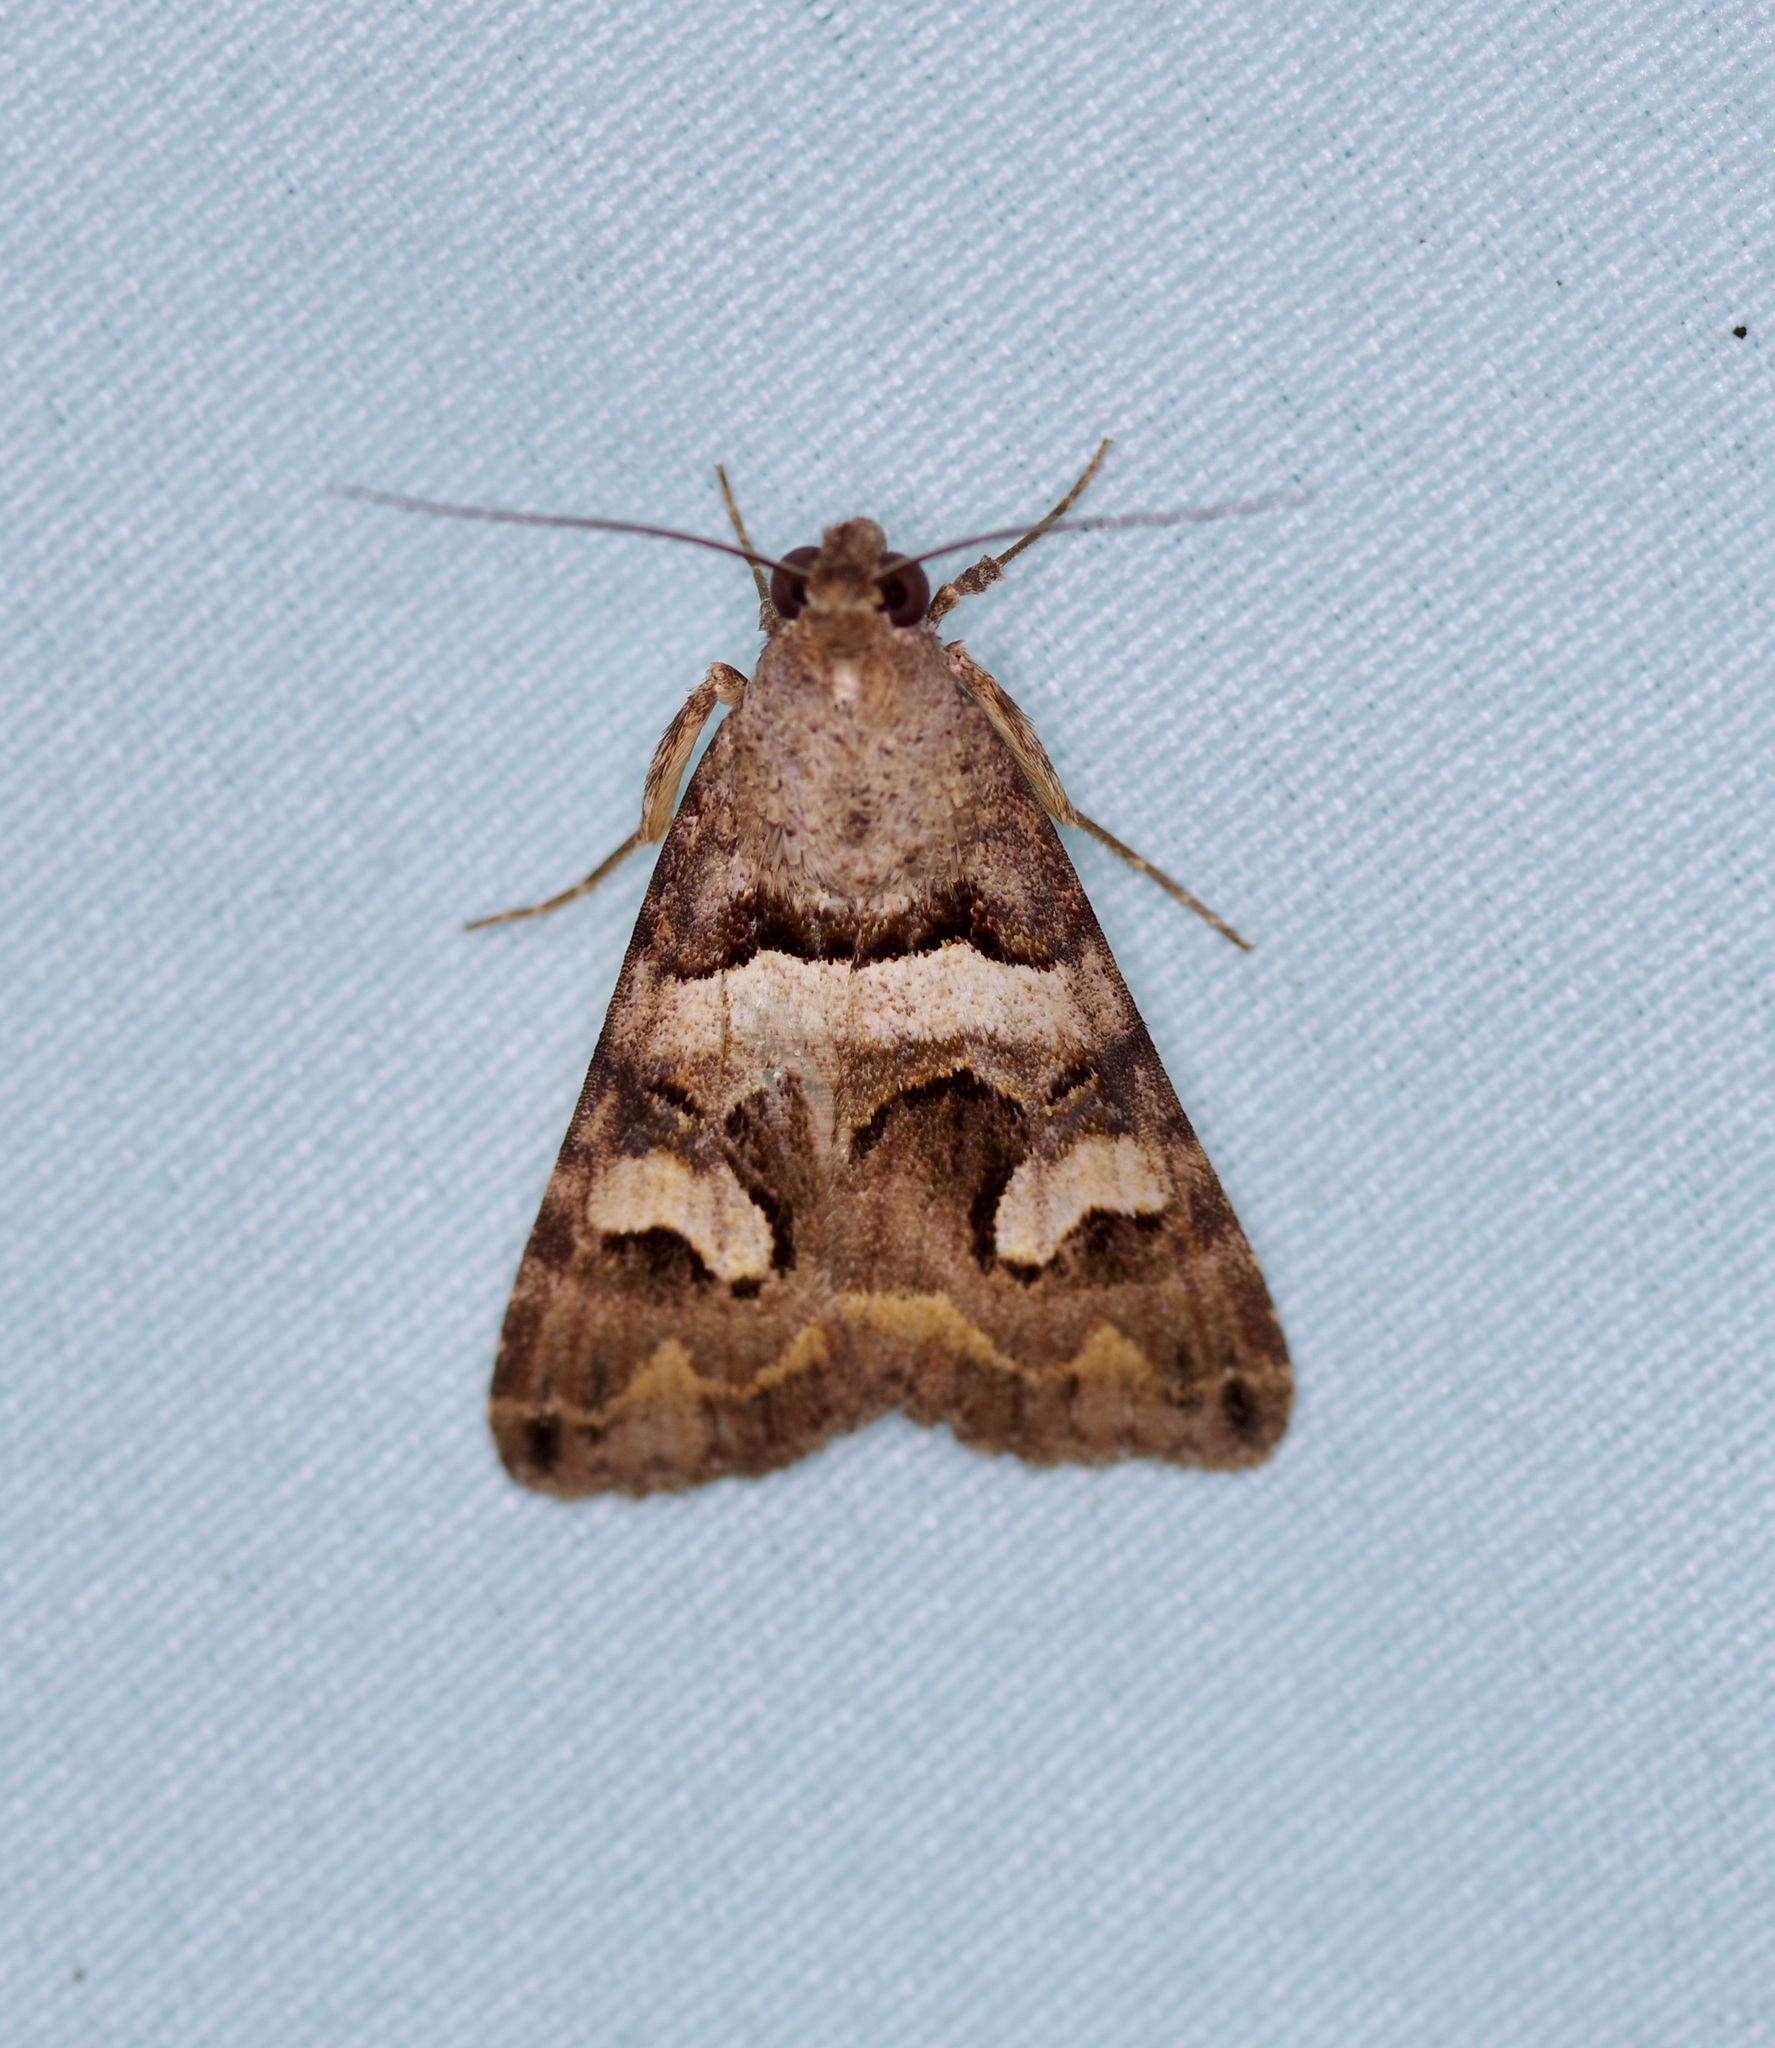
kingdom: Animalia
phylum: Arthropoda
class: Insecta
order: Lepidoptera
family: Erebidae
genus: Bulia
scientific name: Bulia deducta
